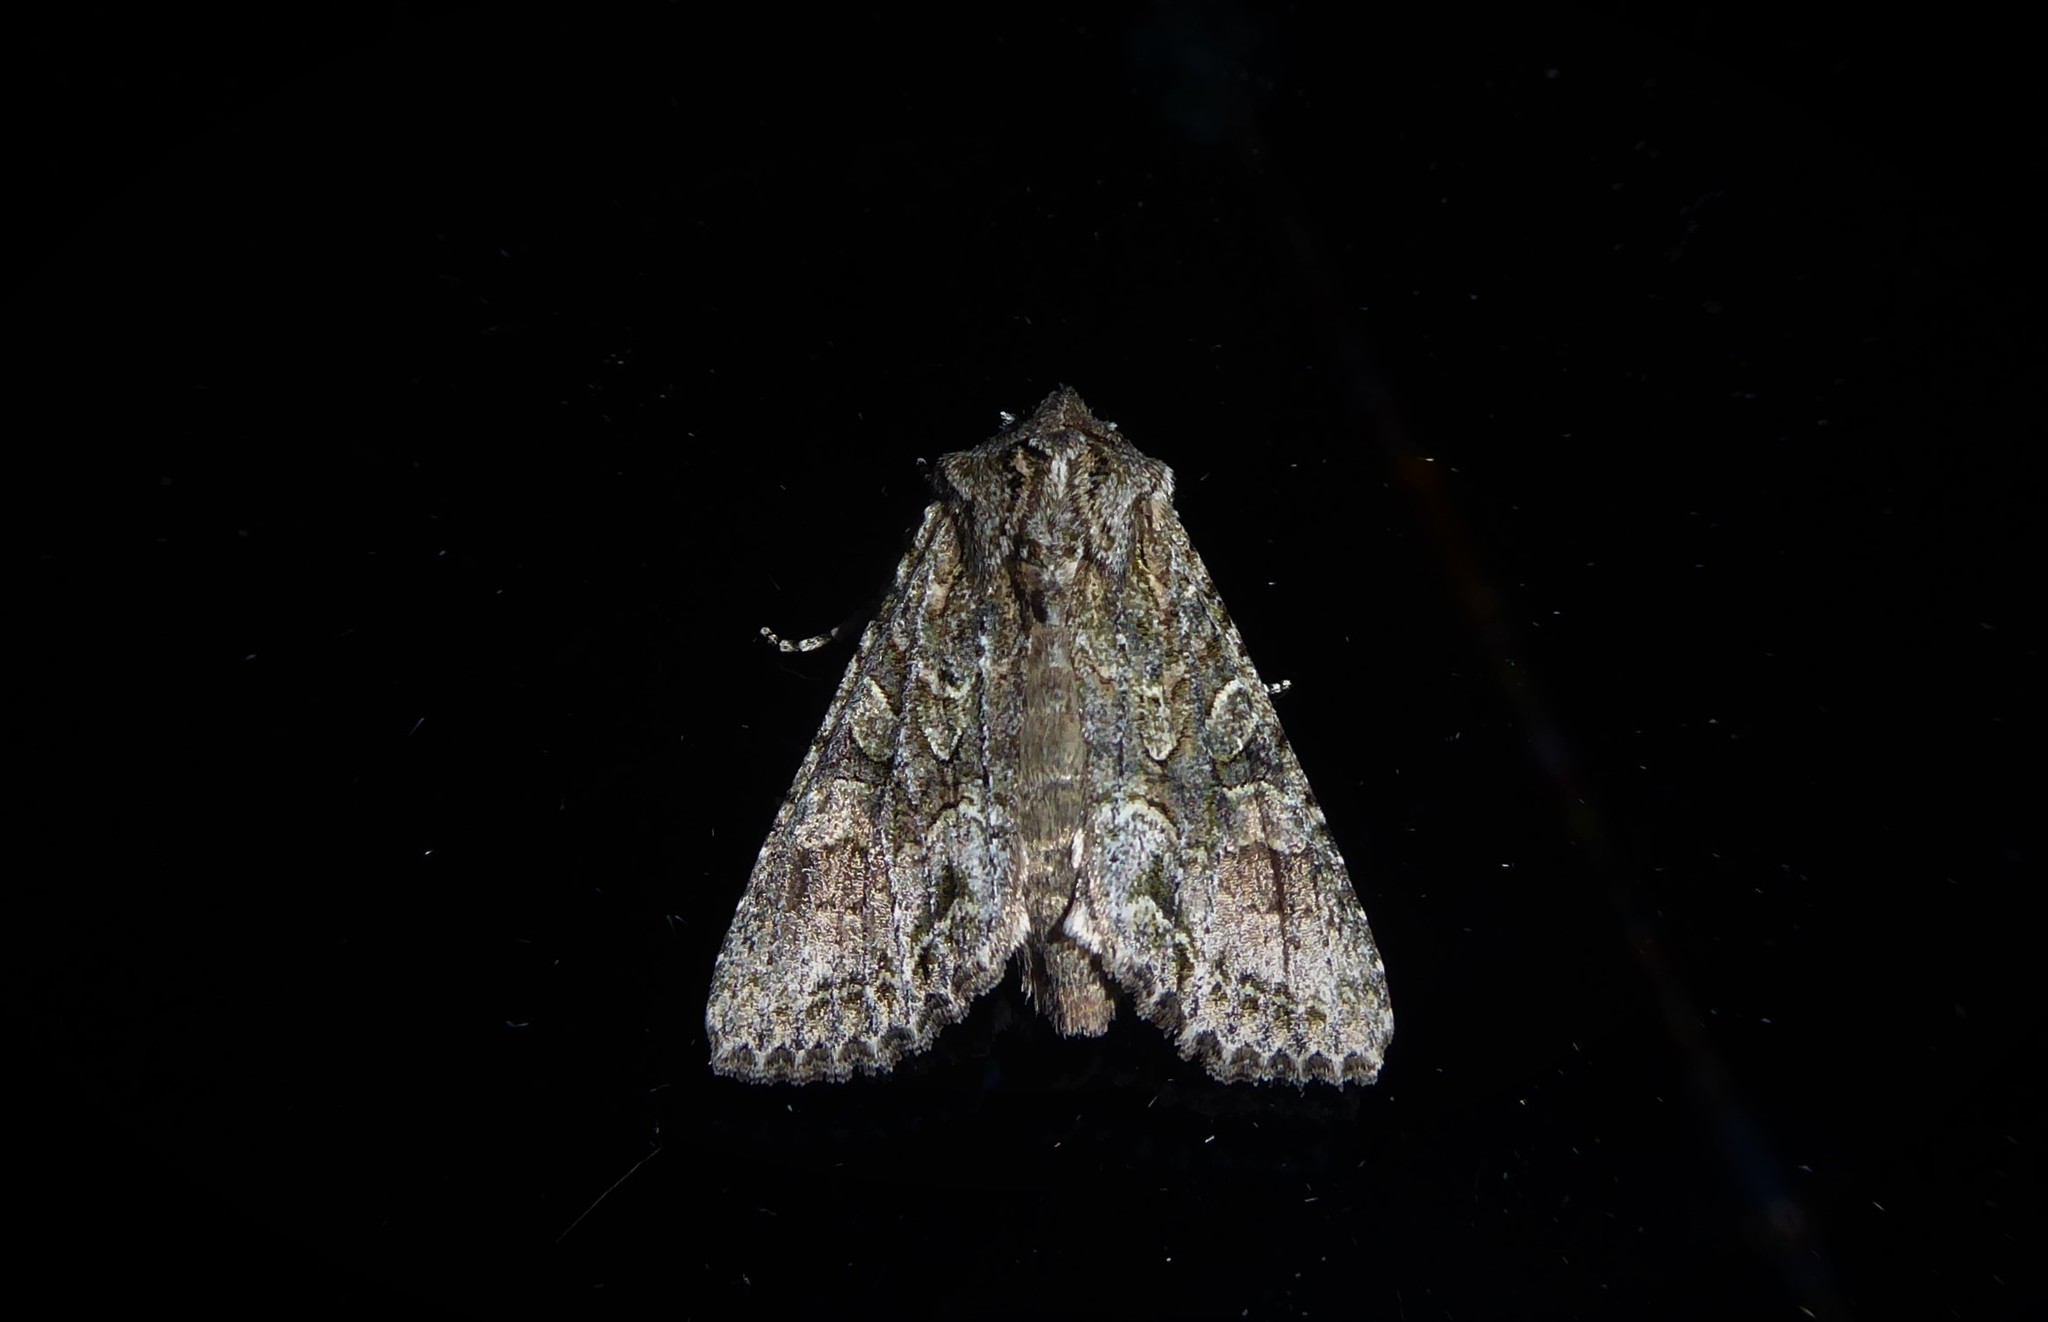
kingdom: Animalia
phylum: Arthropoda
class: Insecta
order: Lepidoptera
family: Noctuidae
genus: Ichneutica
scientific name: Ichneutica mutans
